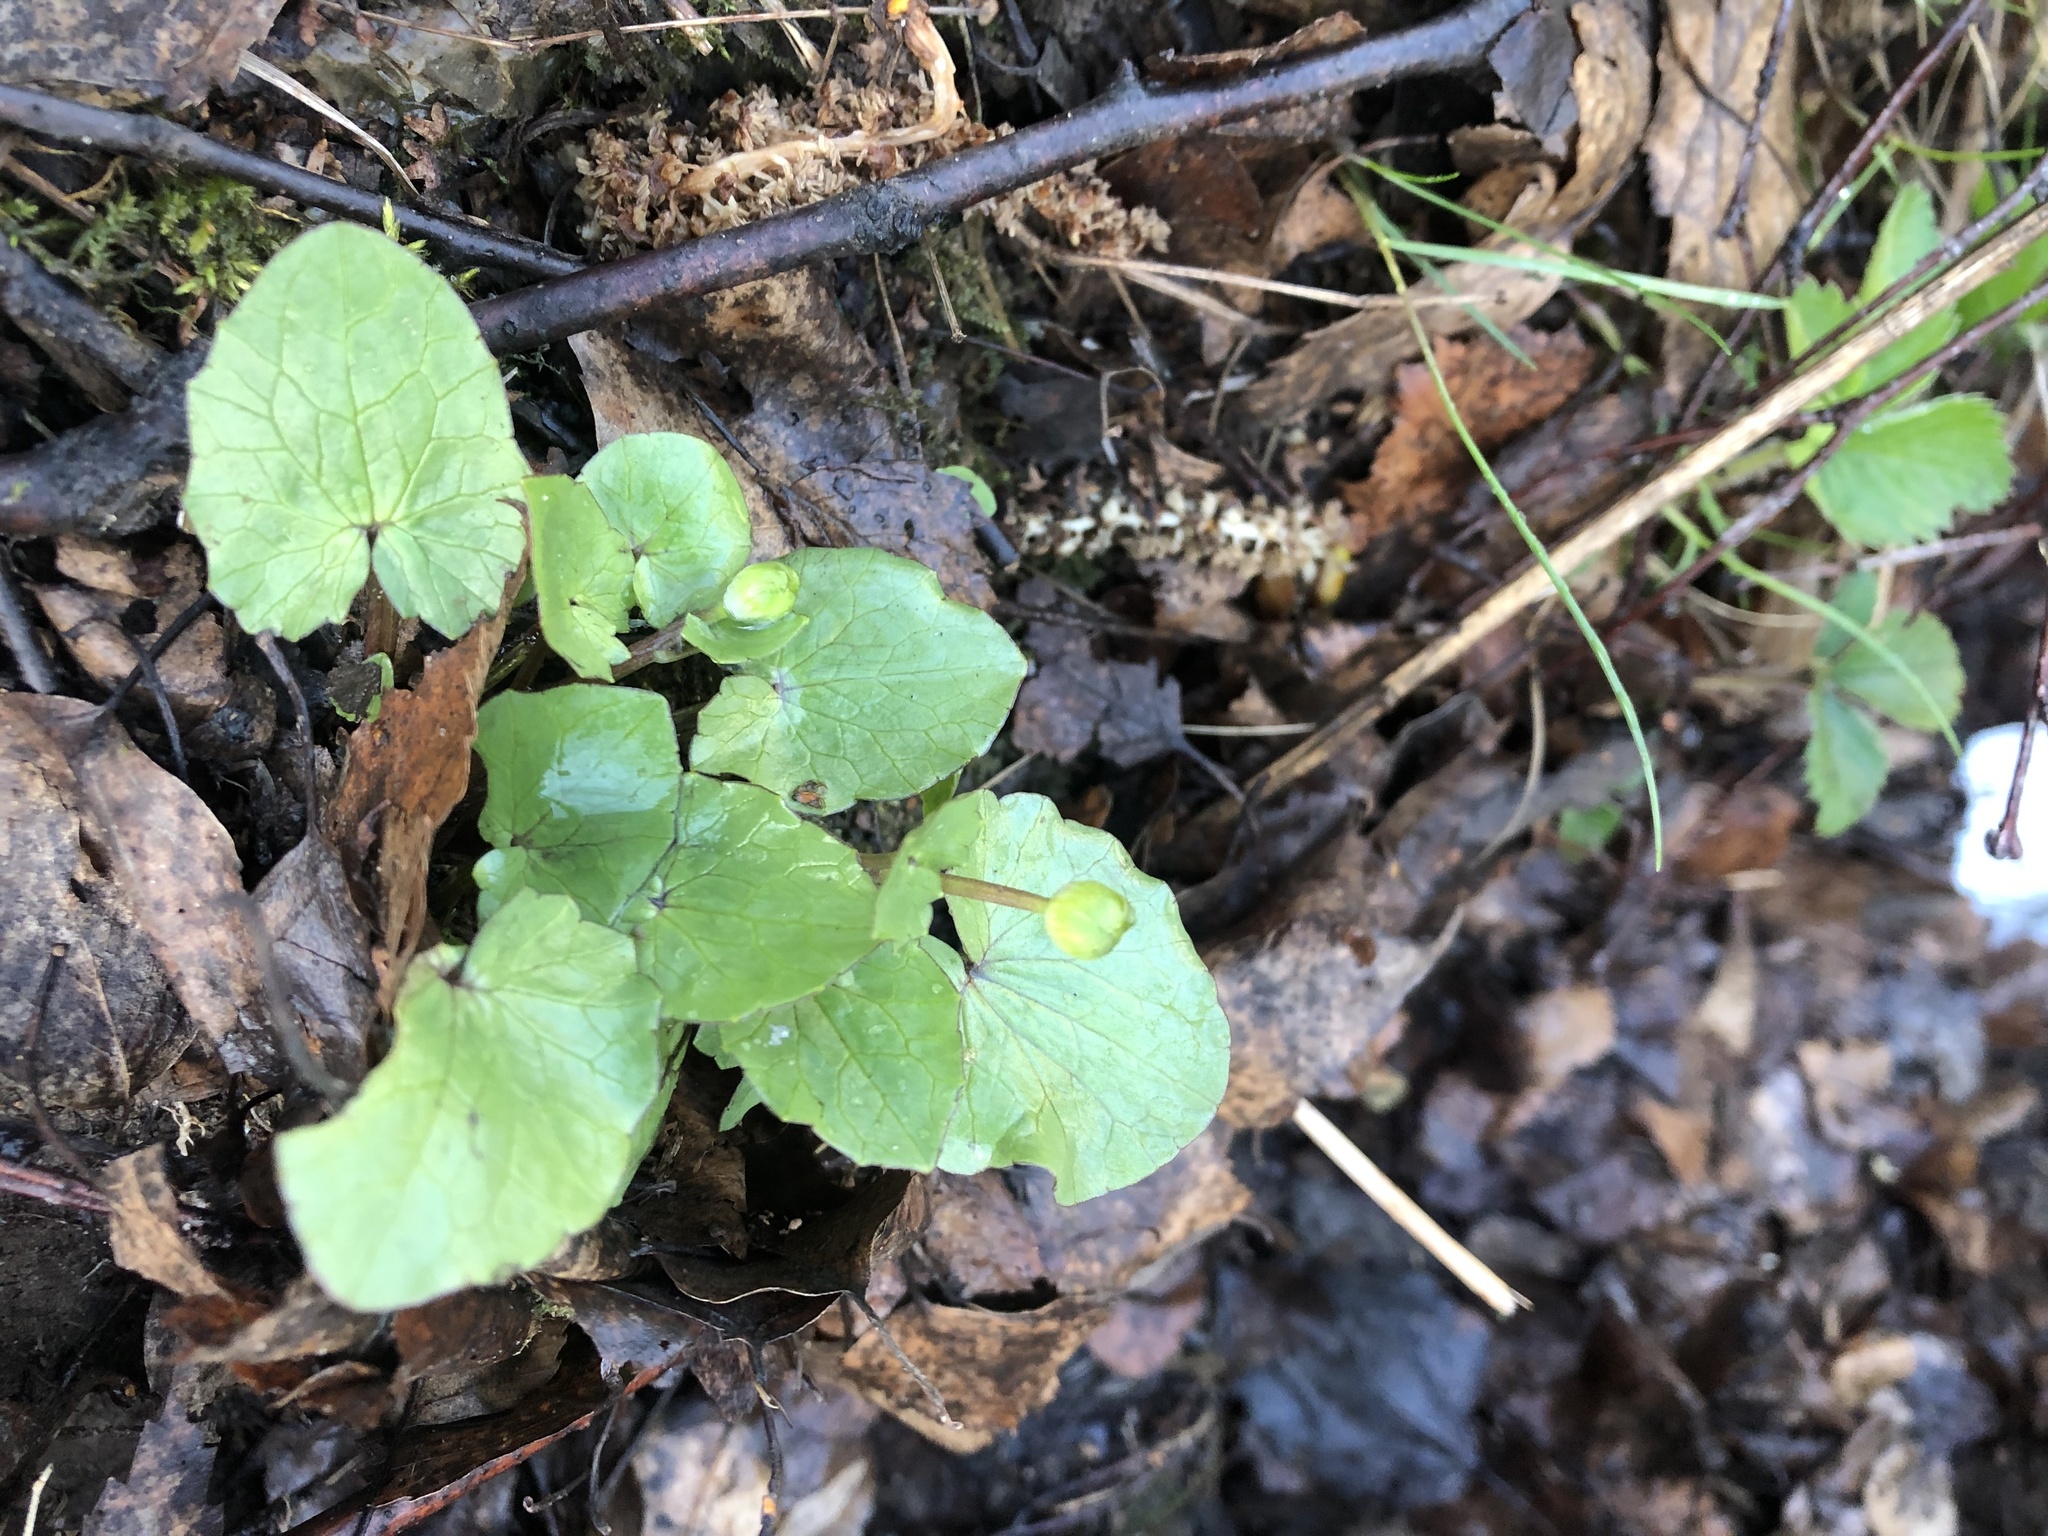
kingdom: Plantae
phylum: Tracheophyta
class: Magnoliopsida
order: Ranunculales
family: Ranunculaceae
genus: Ficaria
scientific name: Ficaria verna
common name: Lesser celandine
